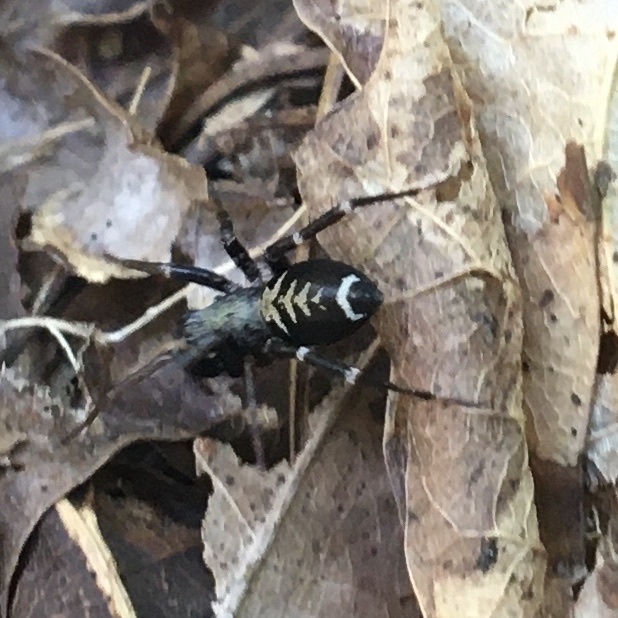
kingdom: Animalia
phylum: Arthropoda
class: Arachnida
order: Araneae
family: Corinnidae
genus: Castianeira
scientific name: Castianeira longipalpa
